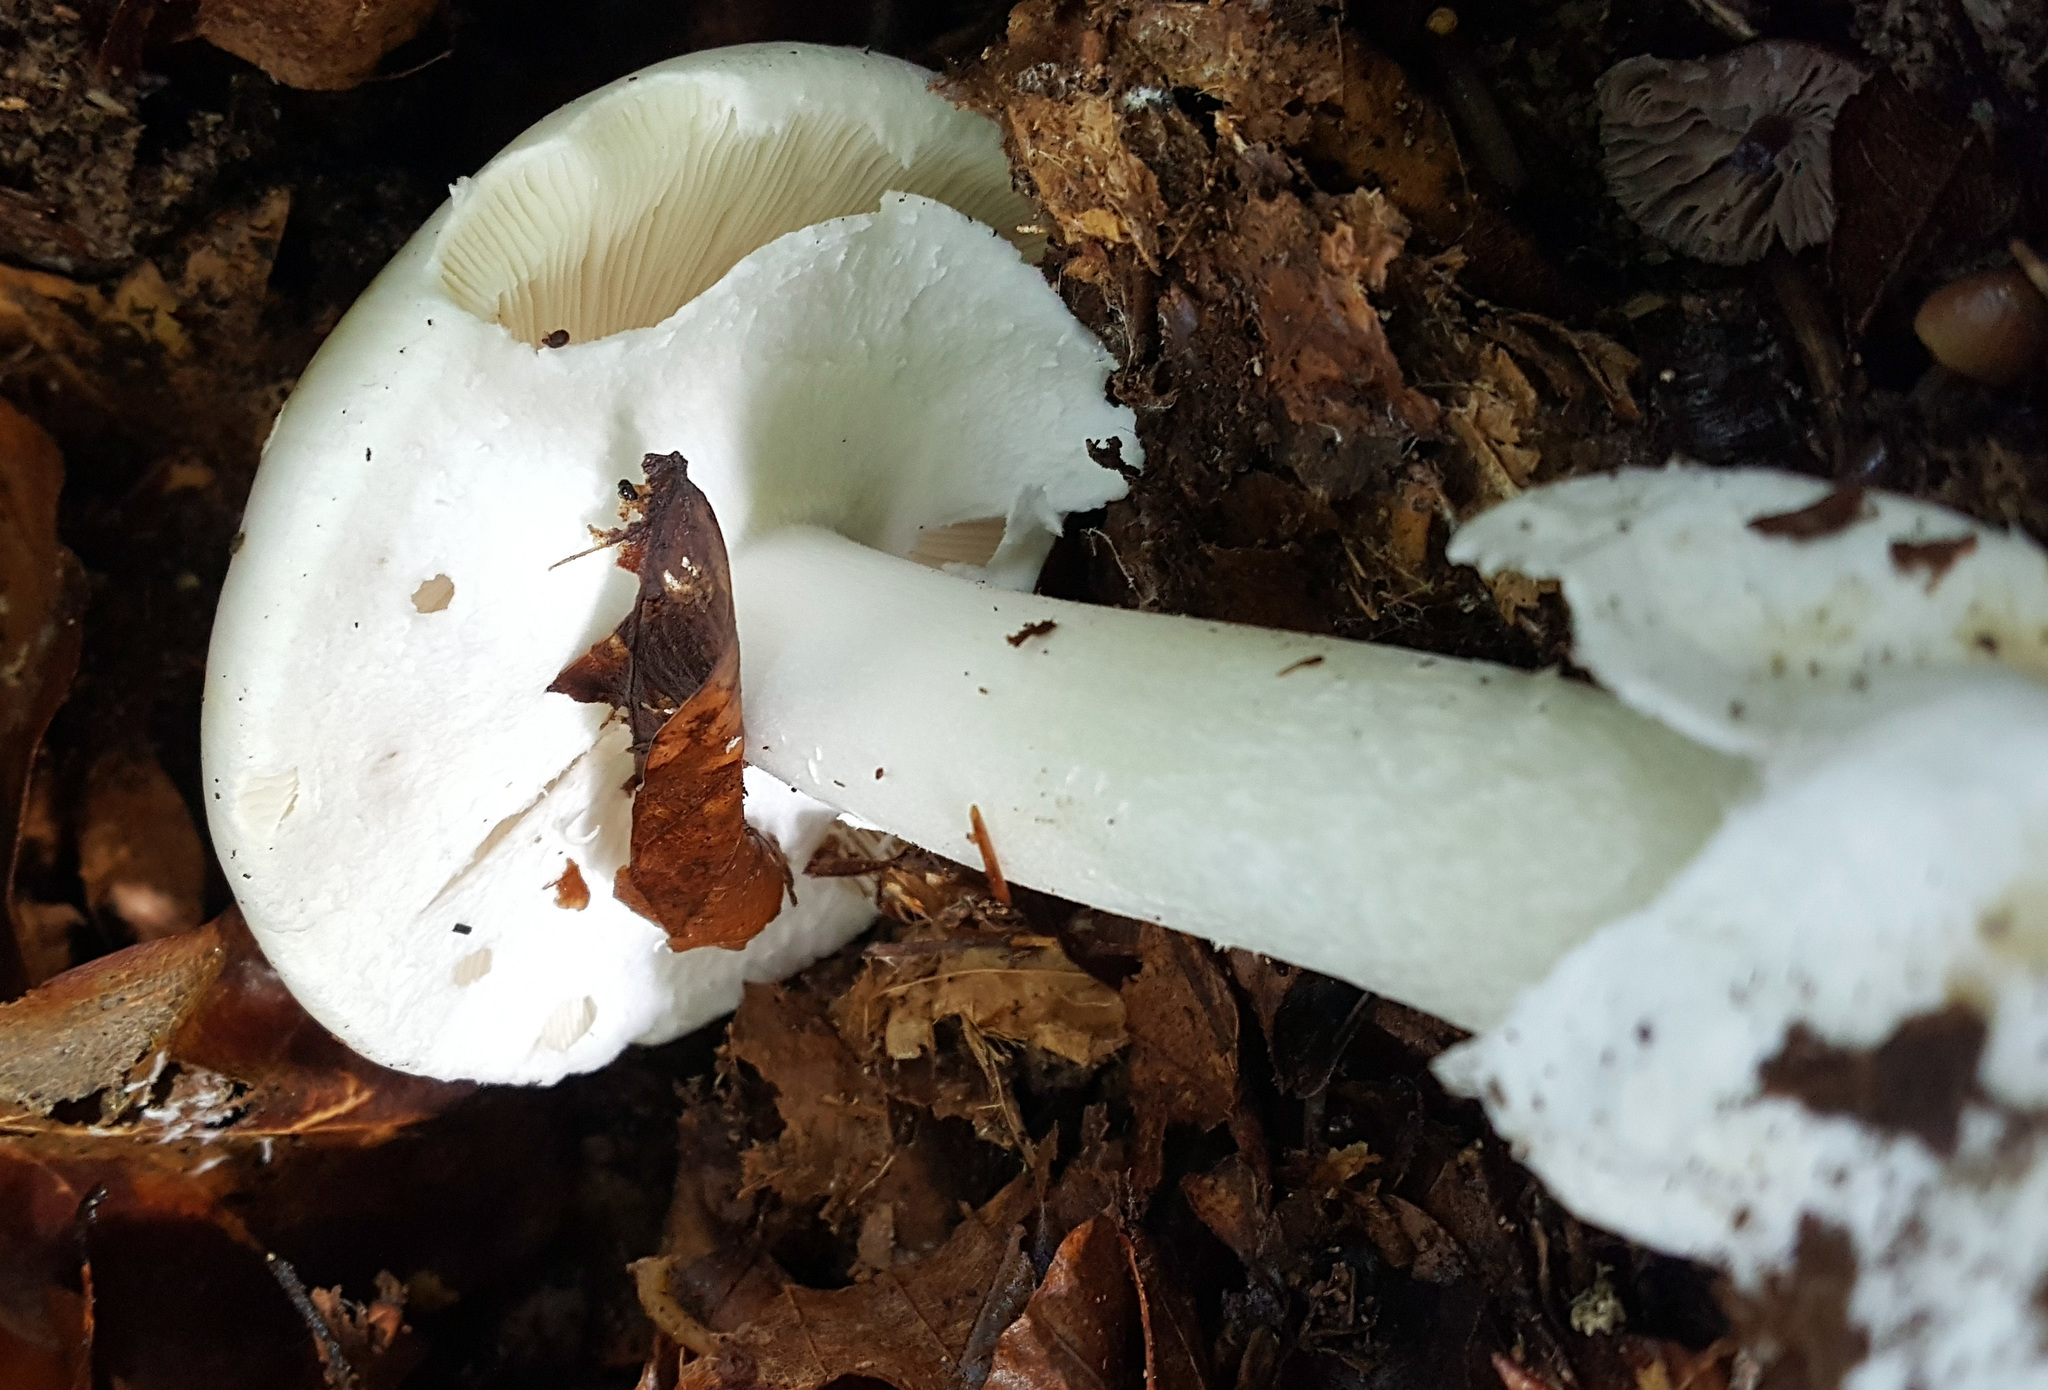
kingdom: Fungi
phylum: Basidiomycota
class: Agaricomycetes
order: Agaricales
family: Amanitaceae
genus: Amanita
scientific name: Amanita phalloides
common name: Death cap
